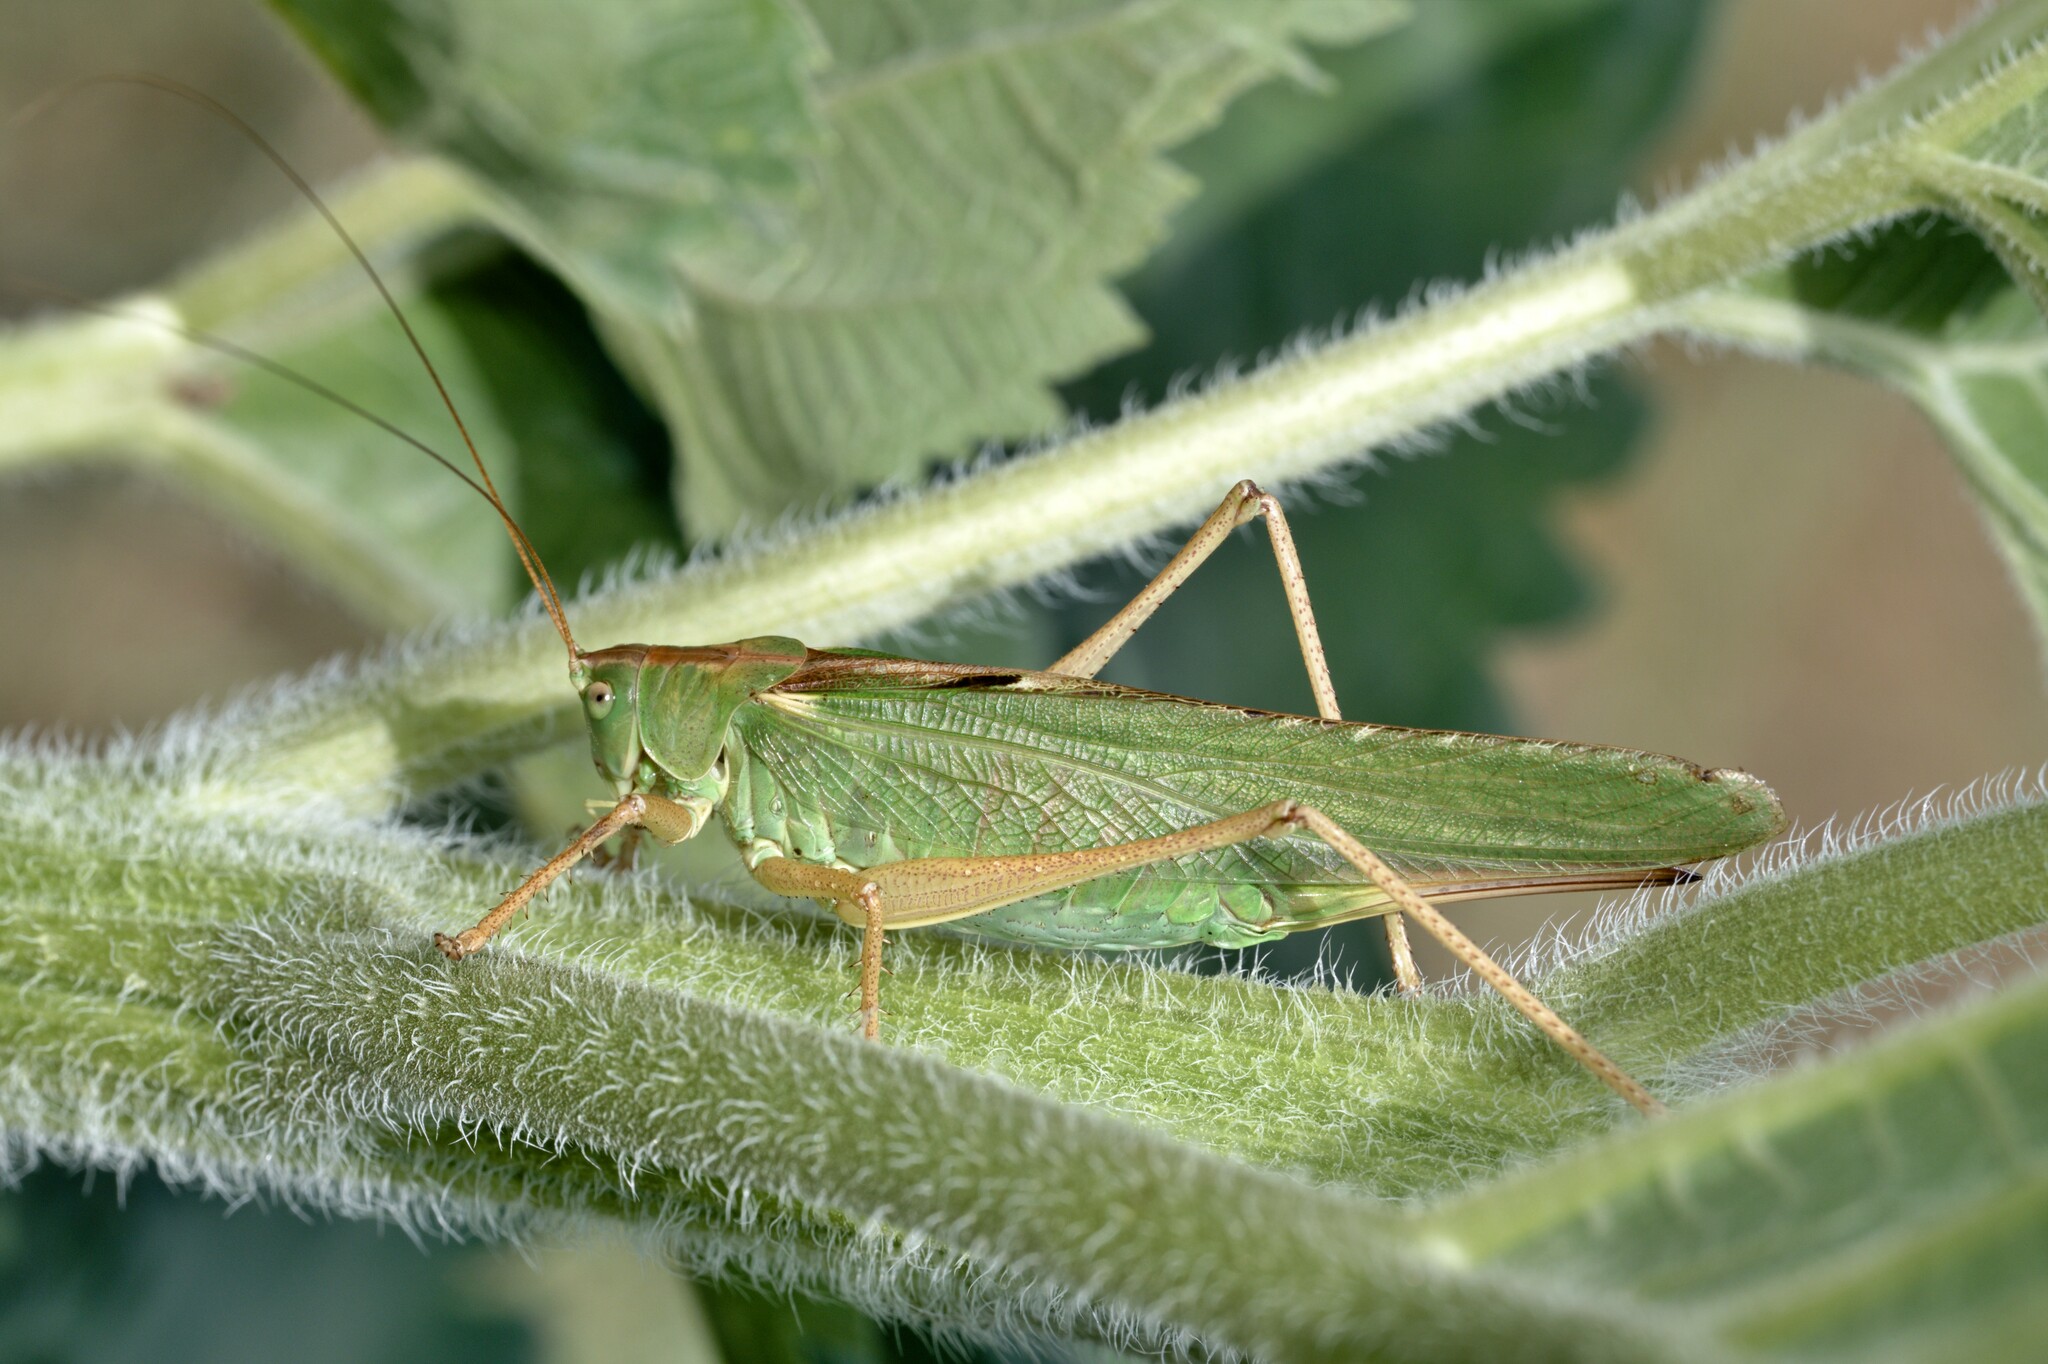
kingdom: Animalia
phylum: Arthropoda
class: Insecta
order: Orthoptera
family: Tettigoniidae
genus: Tettigonia
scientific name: Tettigonia viridissima
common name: Great green bush-cricket
